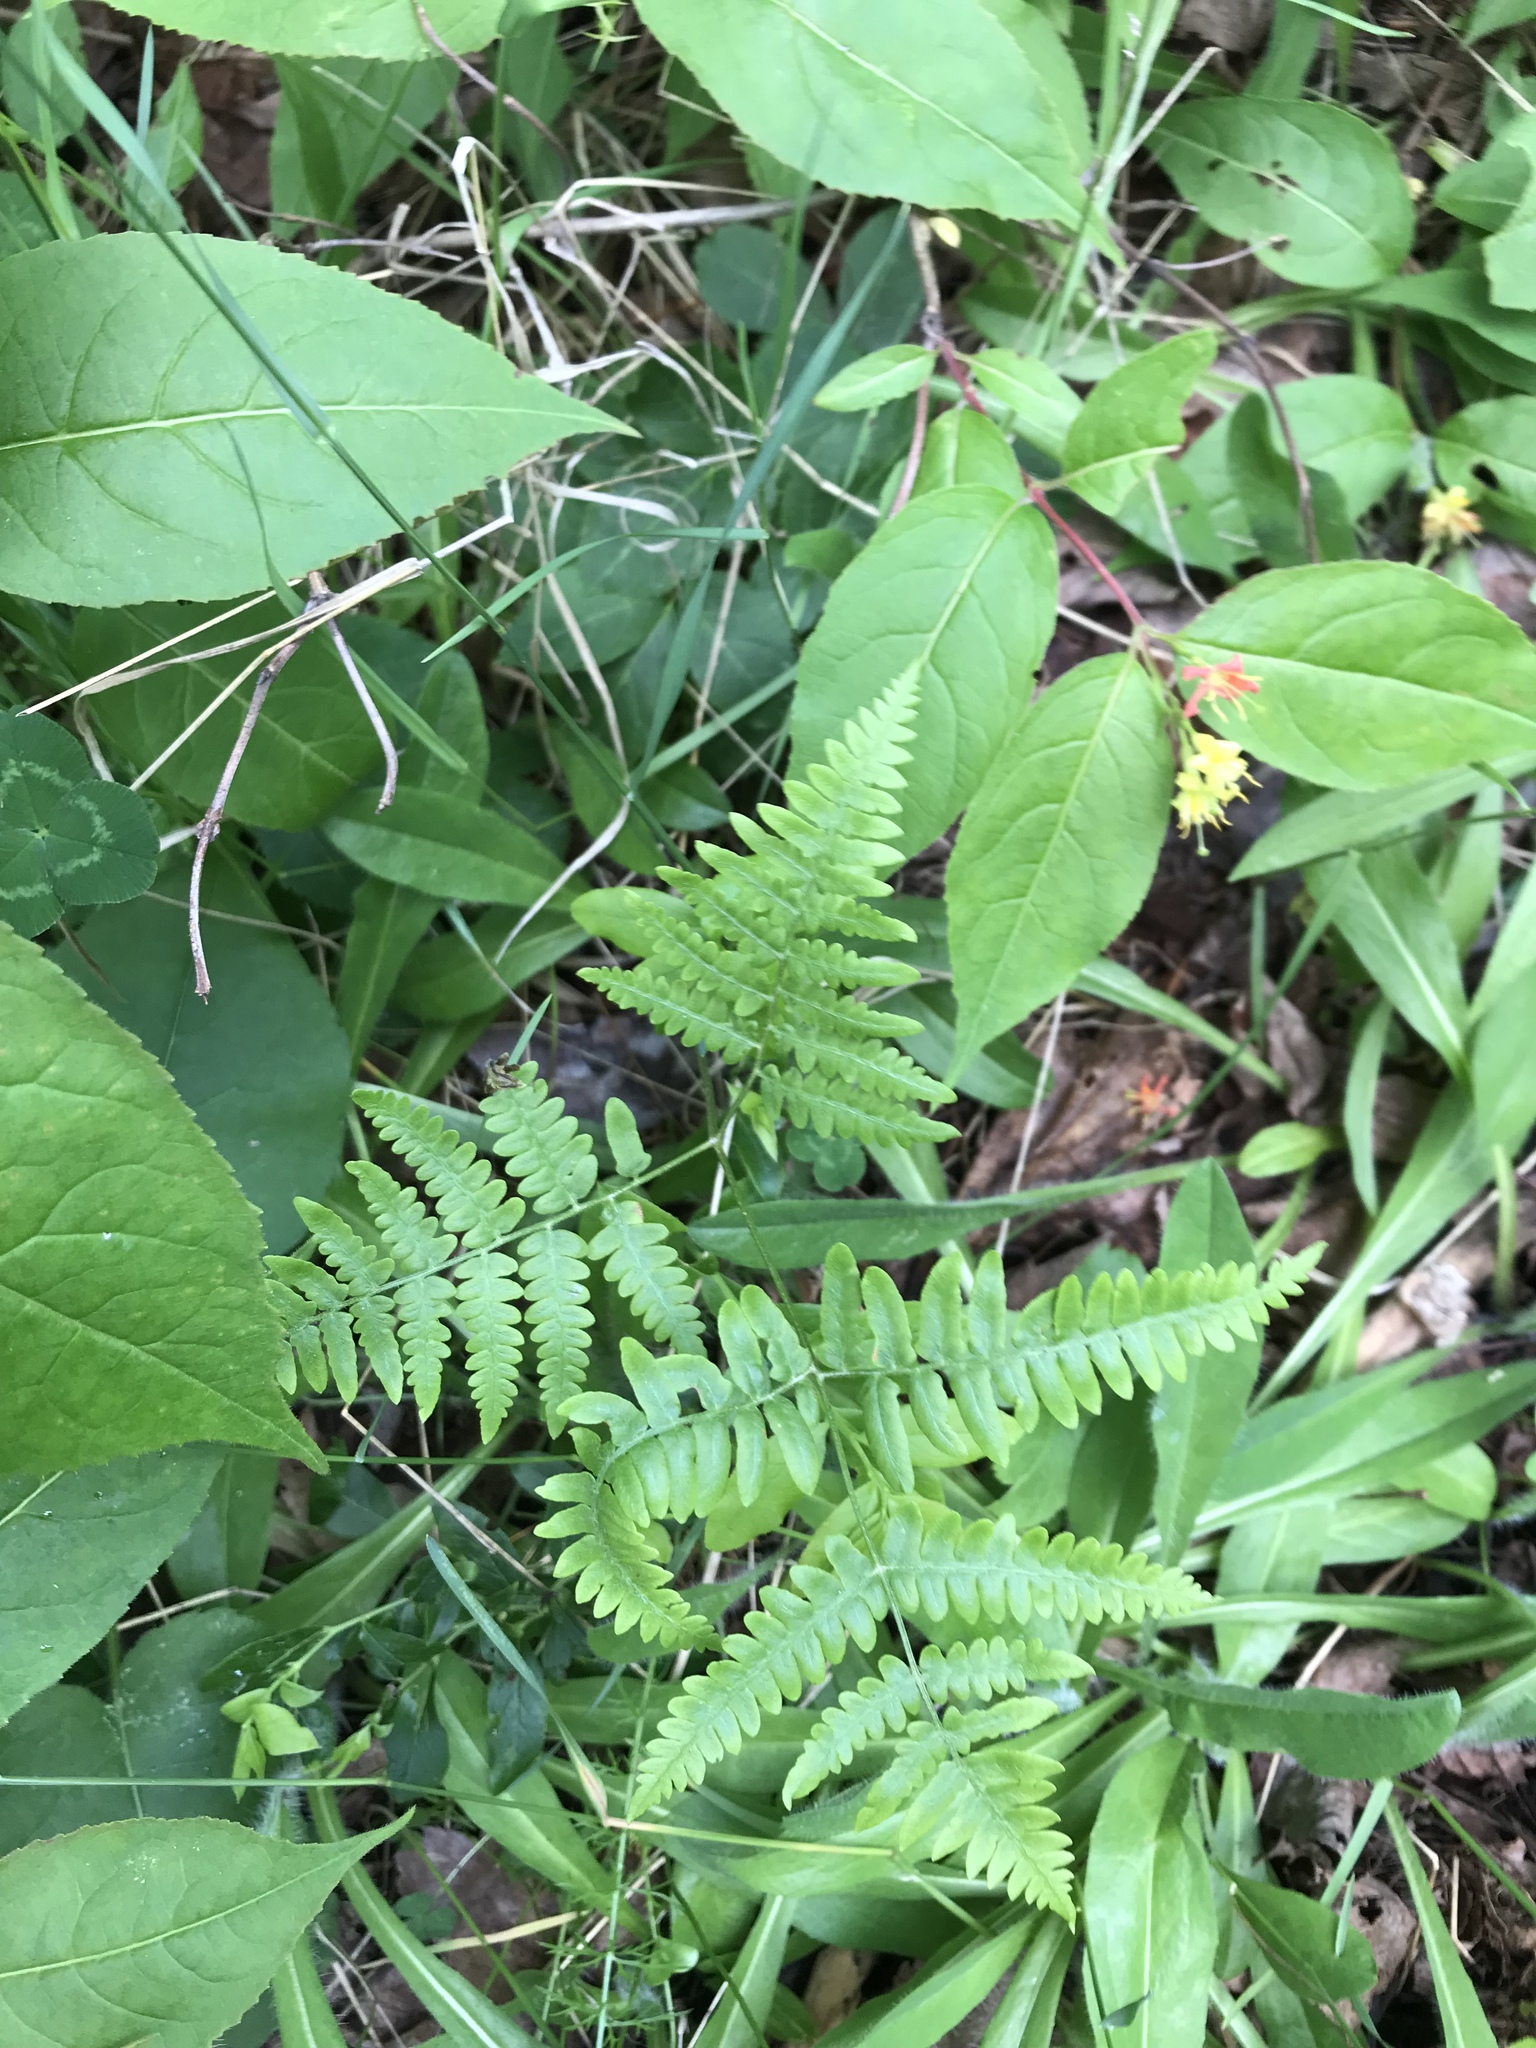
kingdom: Plantae
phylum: Tracheophyta
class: Polypodiopsida
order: Polypodiales
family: Dennstaedtiaceae
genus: Pteridium
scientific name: Pteridium aquilinum
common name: Bracken
